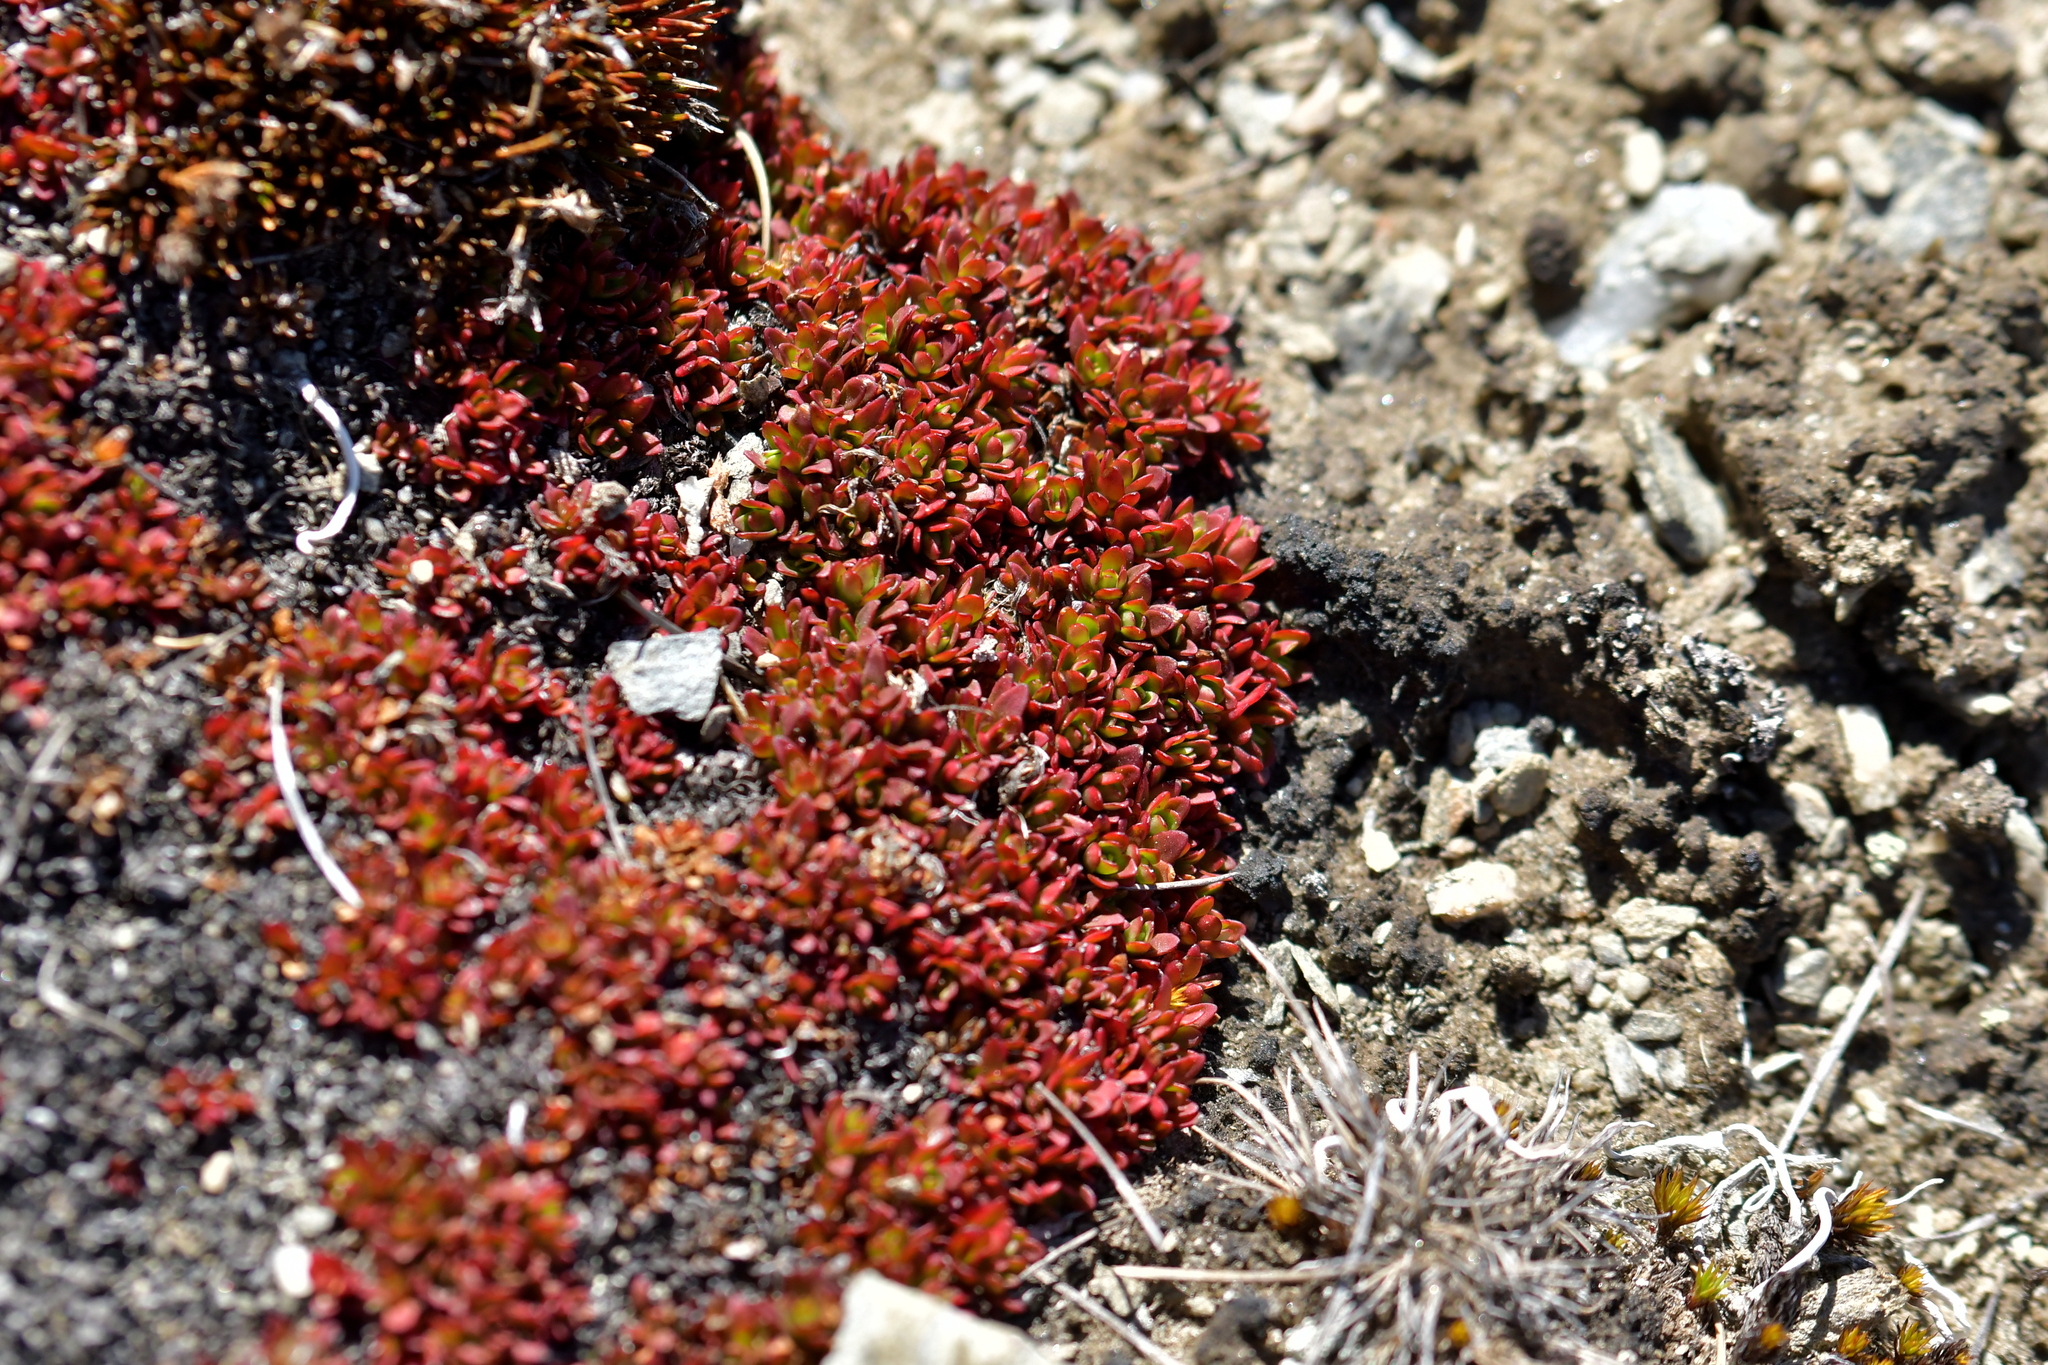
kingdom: Plantae
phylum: Tracheophyta
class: Magnoliopsida
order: Myrtales
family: Onagraceae
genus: Epilobium
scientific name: Epilobium tasmanicum
